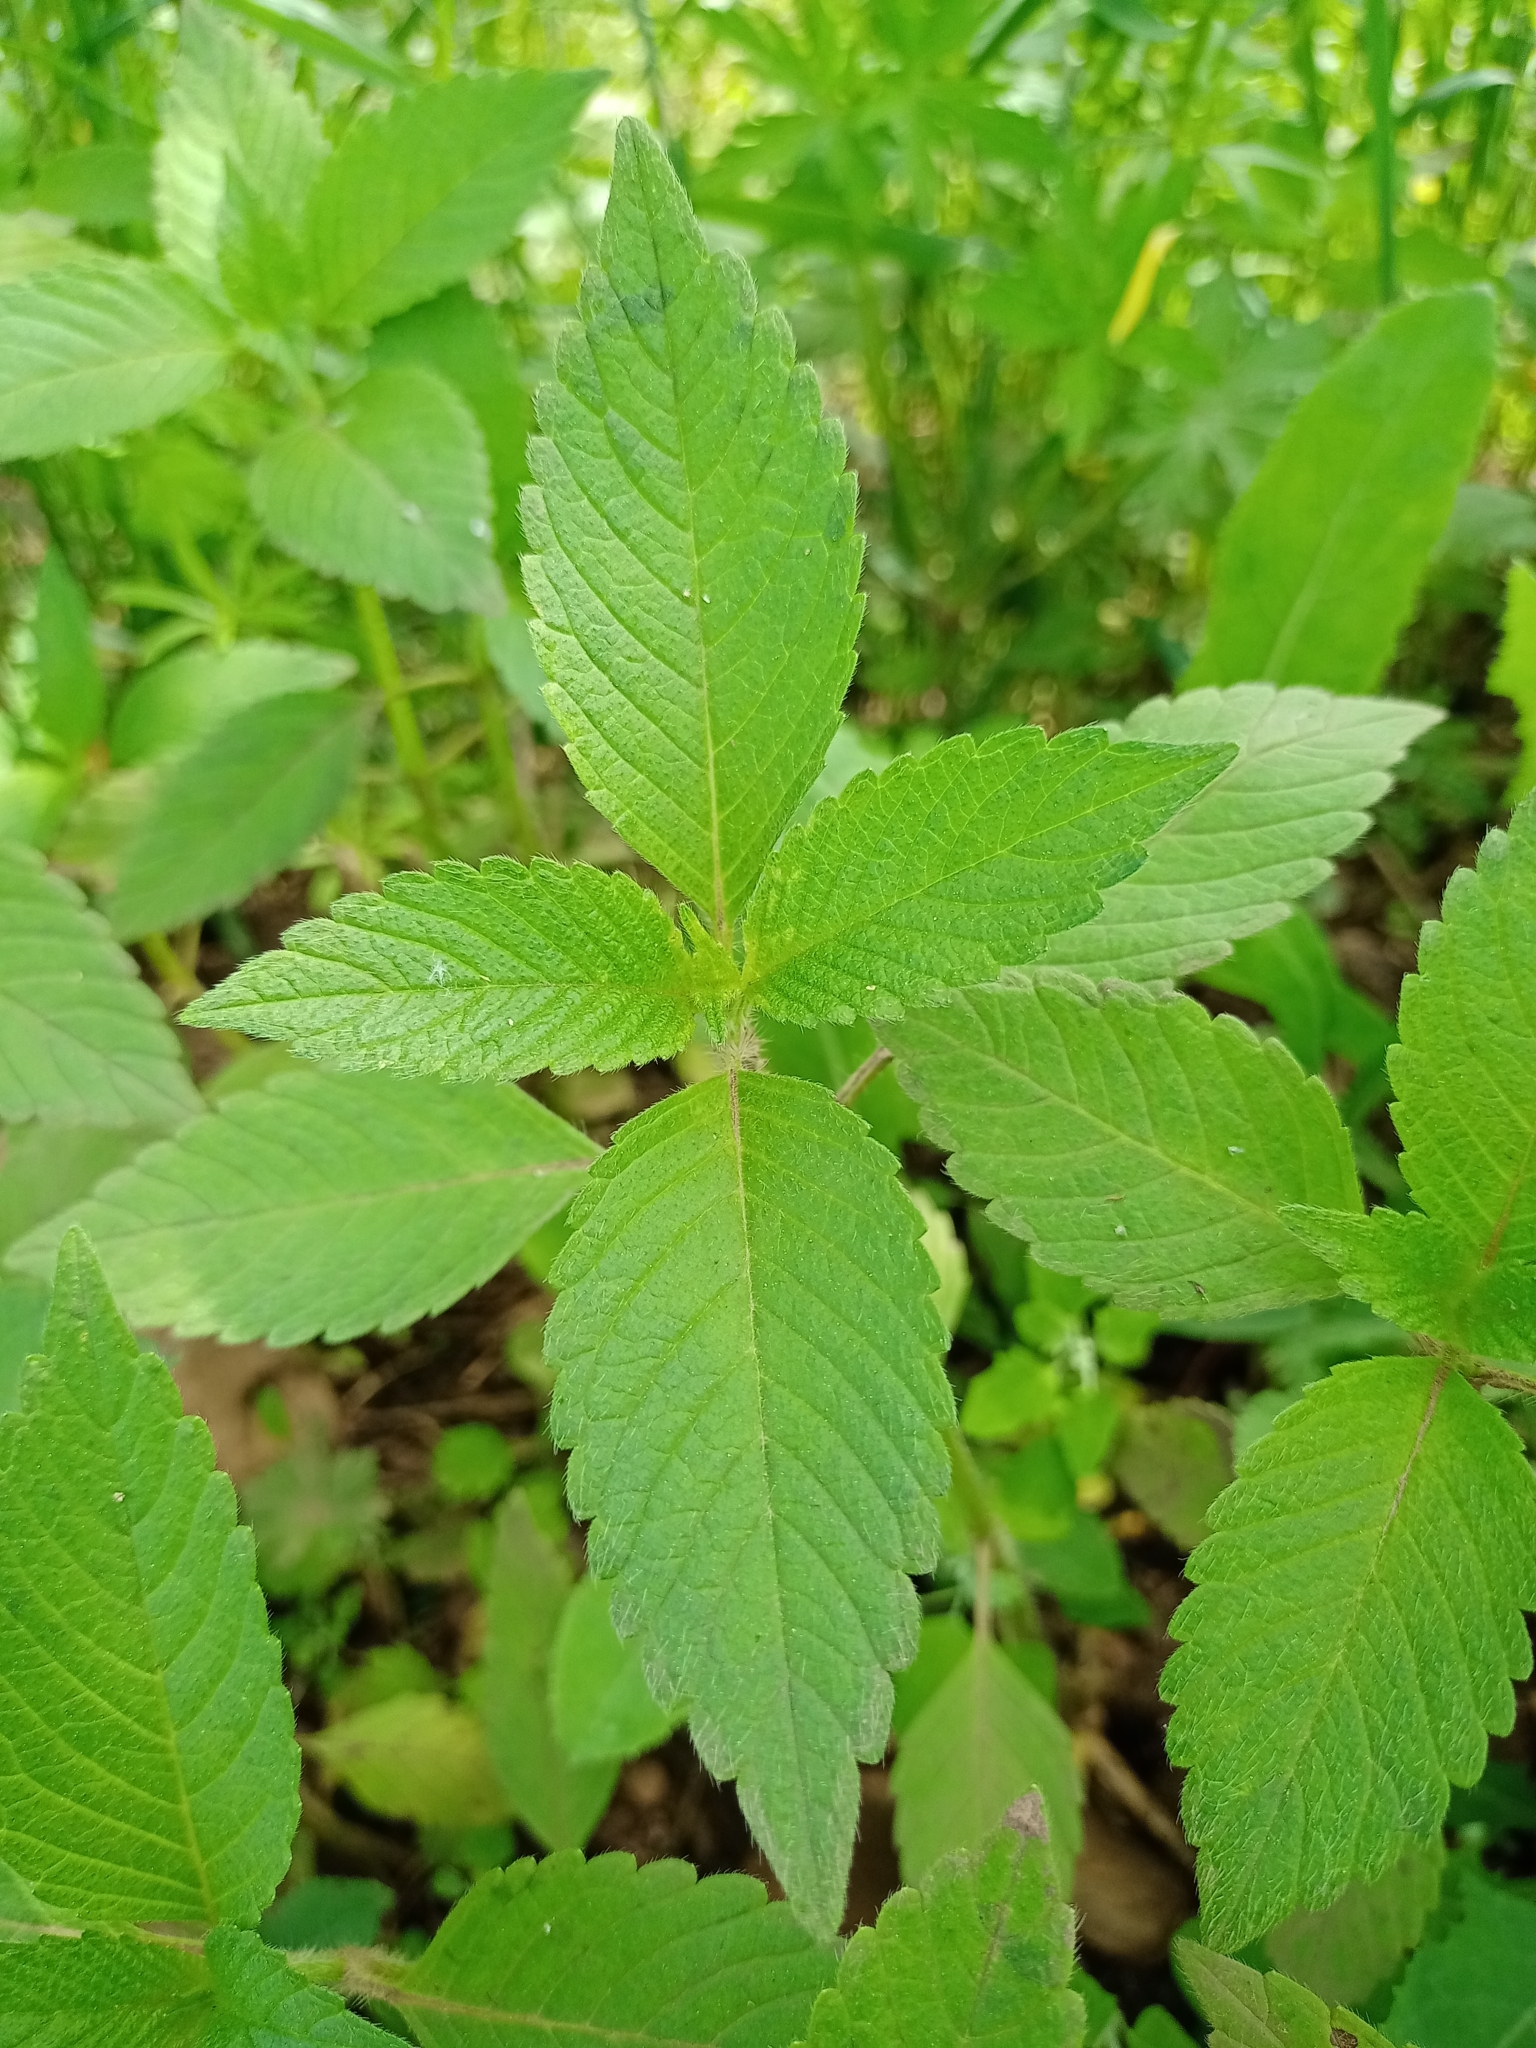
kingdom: Plantae
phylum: Tracheophyta
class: Magnoliopsida
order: Lamiales
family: Lamiaceae
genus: Galeopsis
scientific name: Galeopsis bifida
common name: Bifid hemp-nettle
